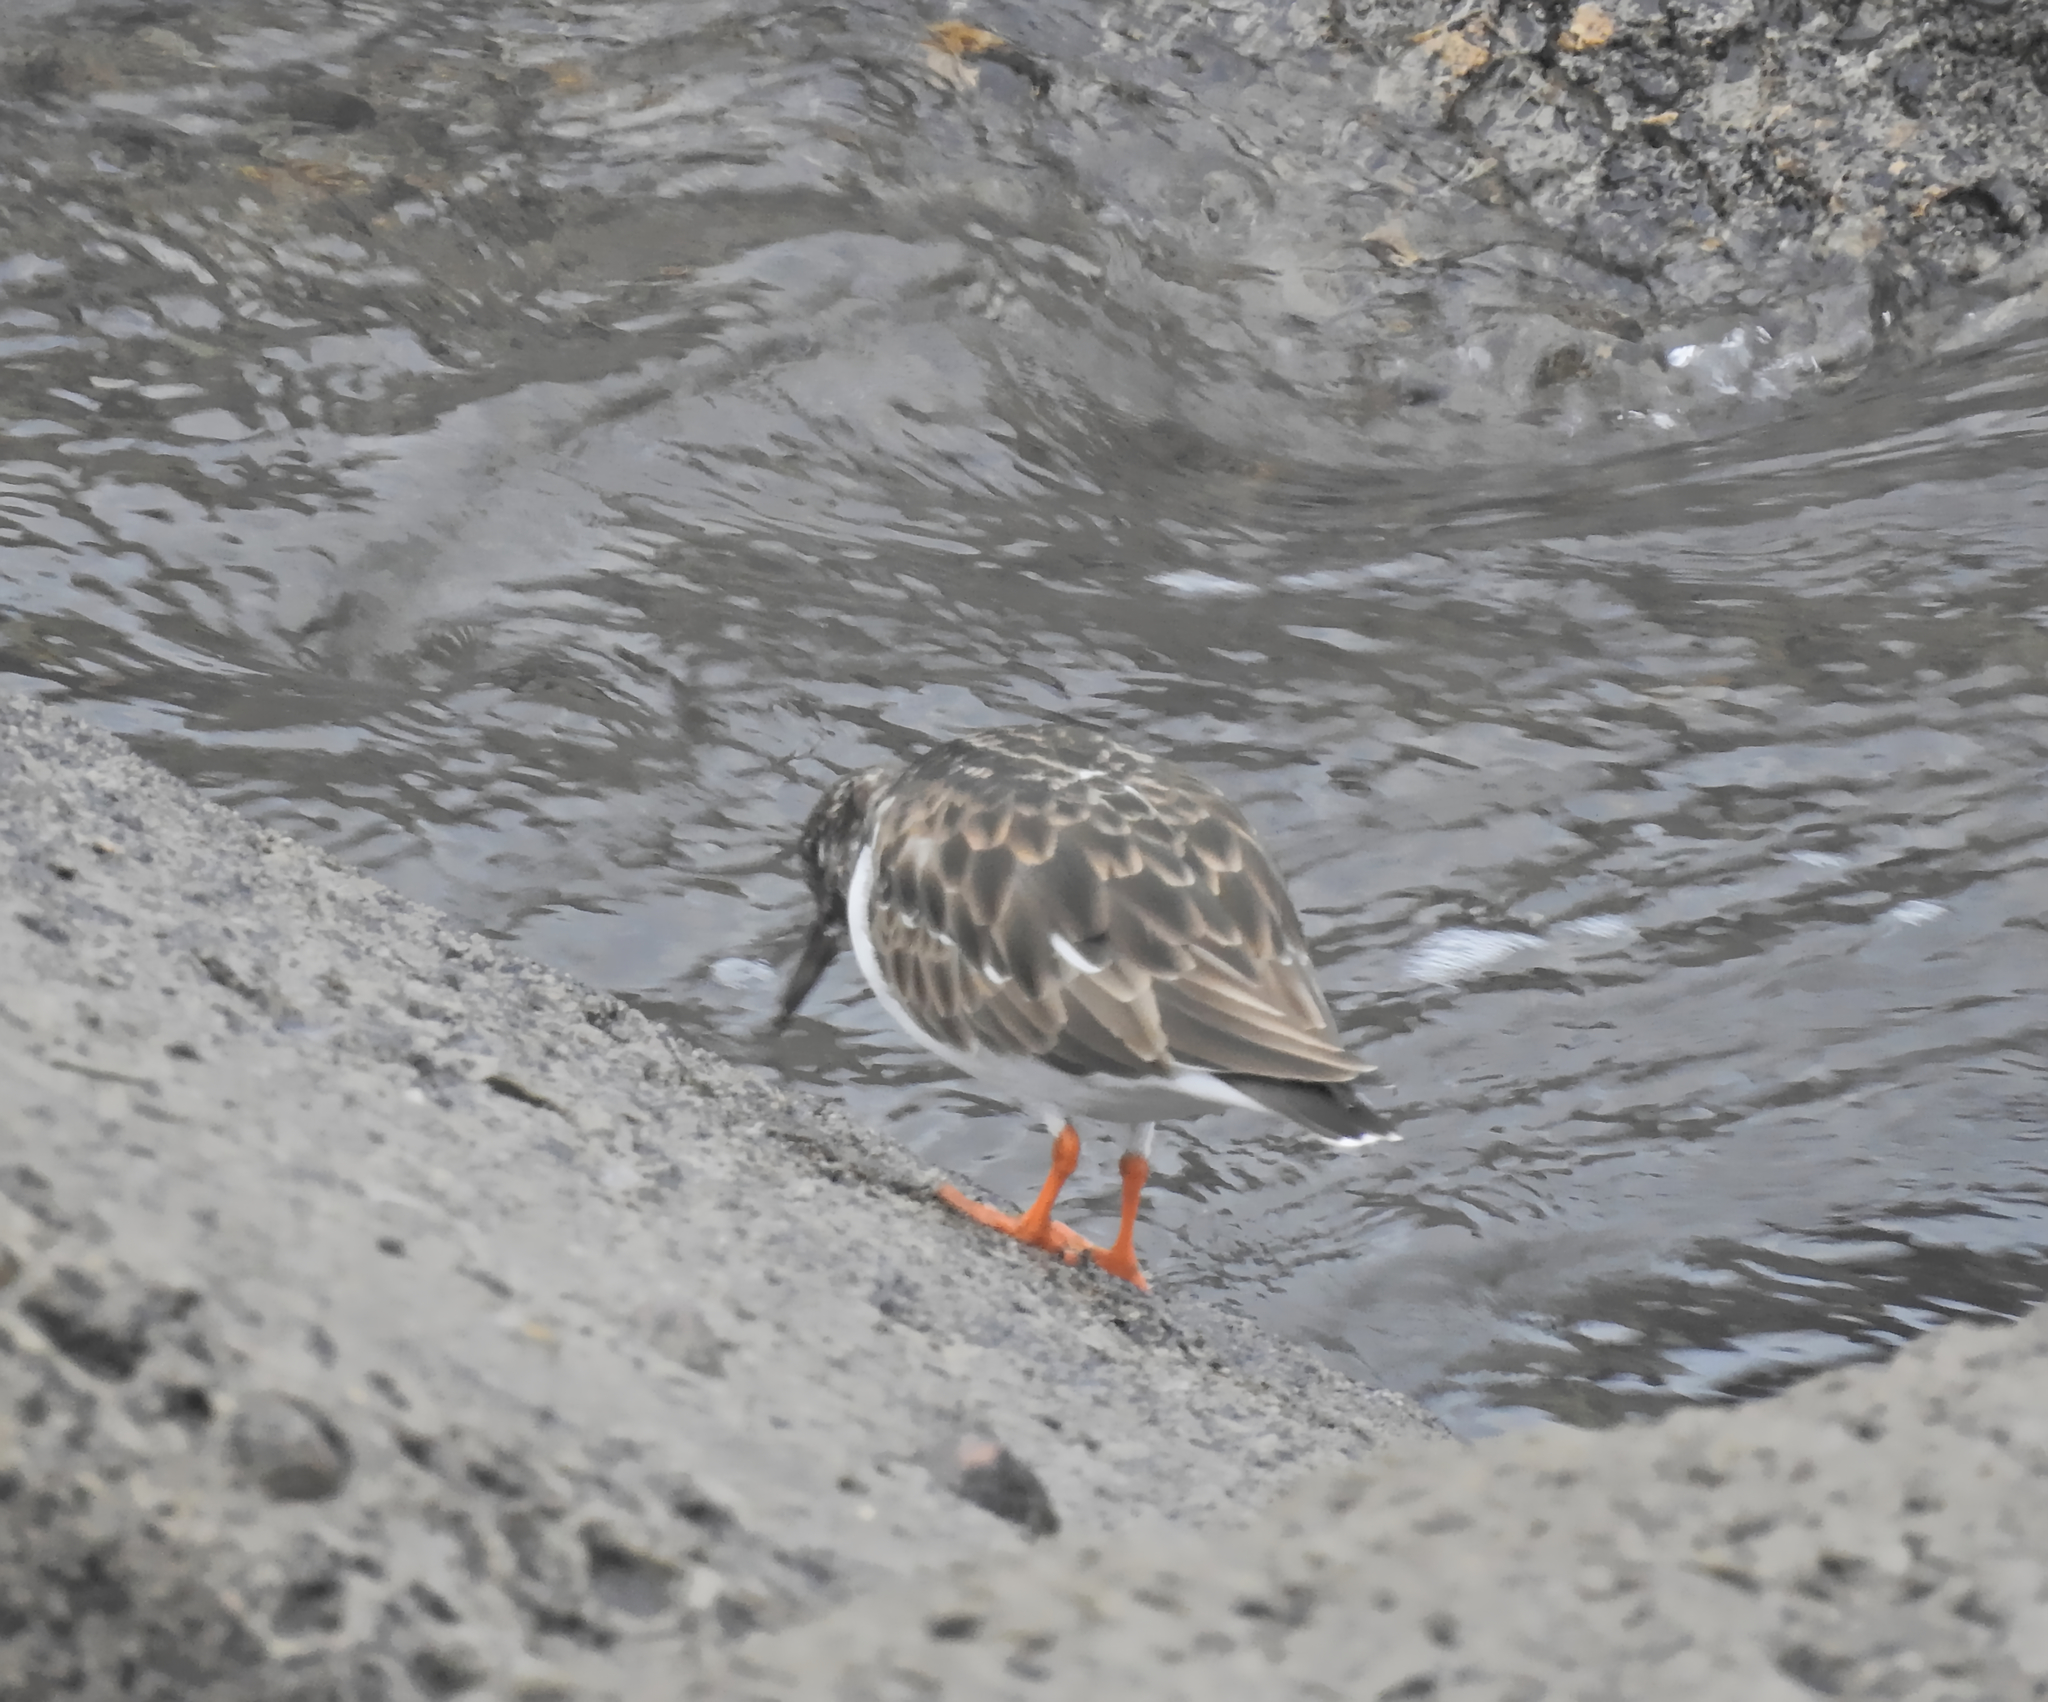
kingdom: Animalia
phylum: Chordata
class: Aves
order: Charadriiformes
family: Scolopacidae
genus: Arenaria
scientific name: Arenaria interpres
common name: Ruddy turnstone
